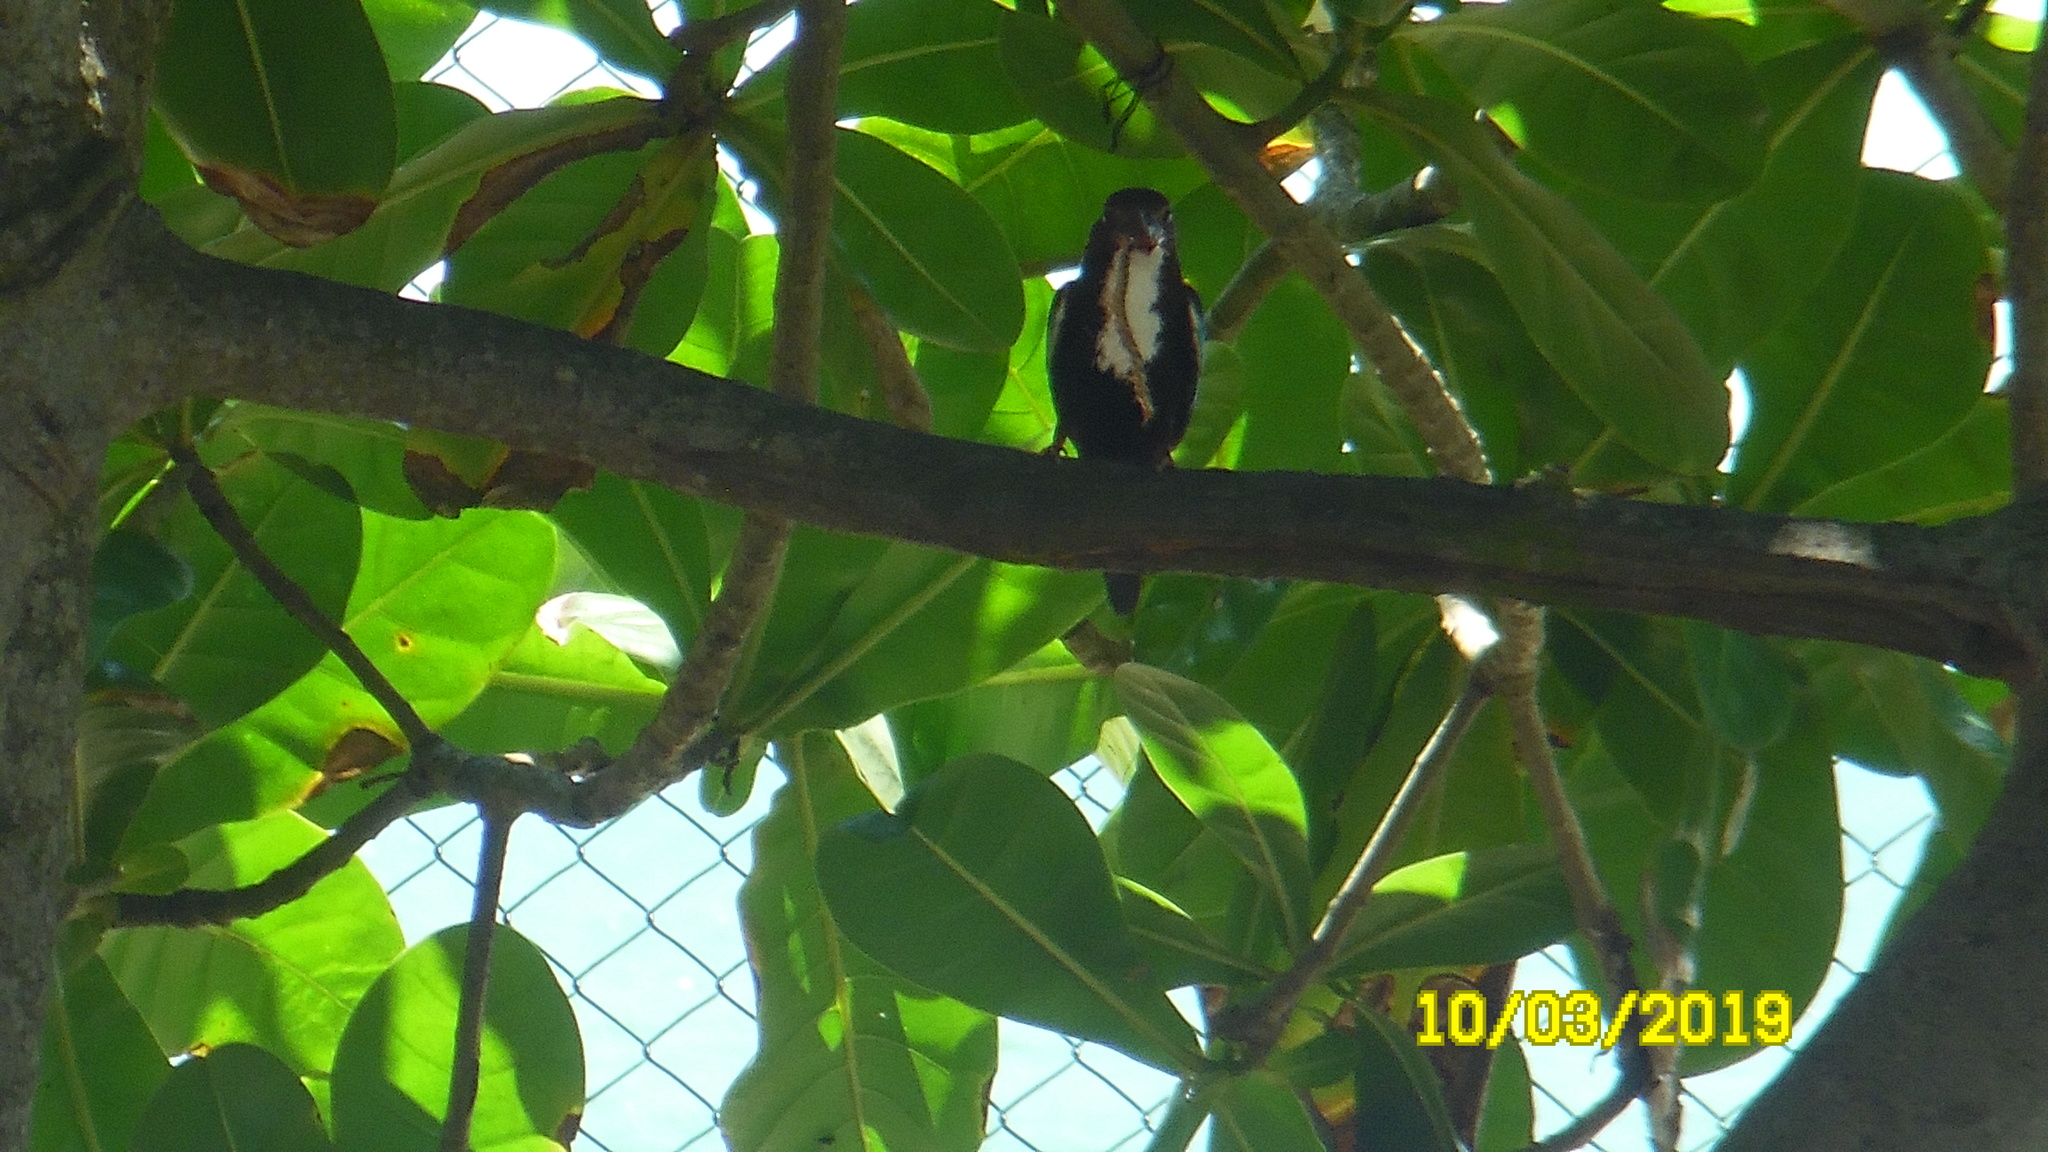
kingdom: Animalia
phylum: Chordata
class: Aves
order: Coraciiformes
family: Alcedinidae
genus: Halcyon
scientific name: Halcyon smyrnensis
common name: White-throated kingfisher
